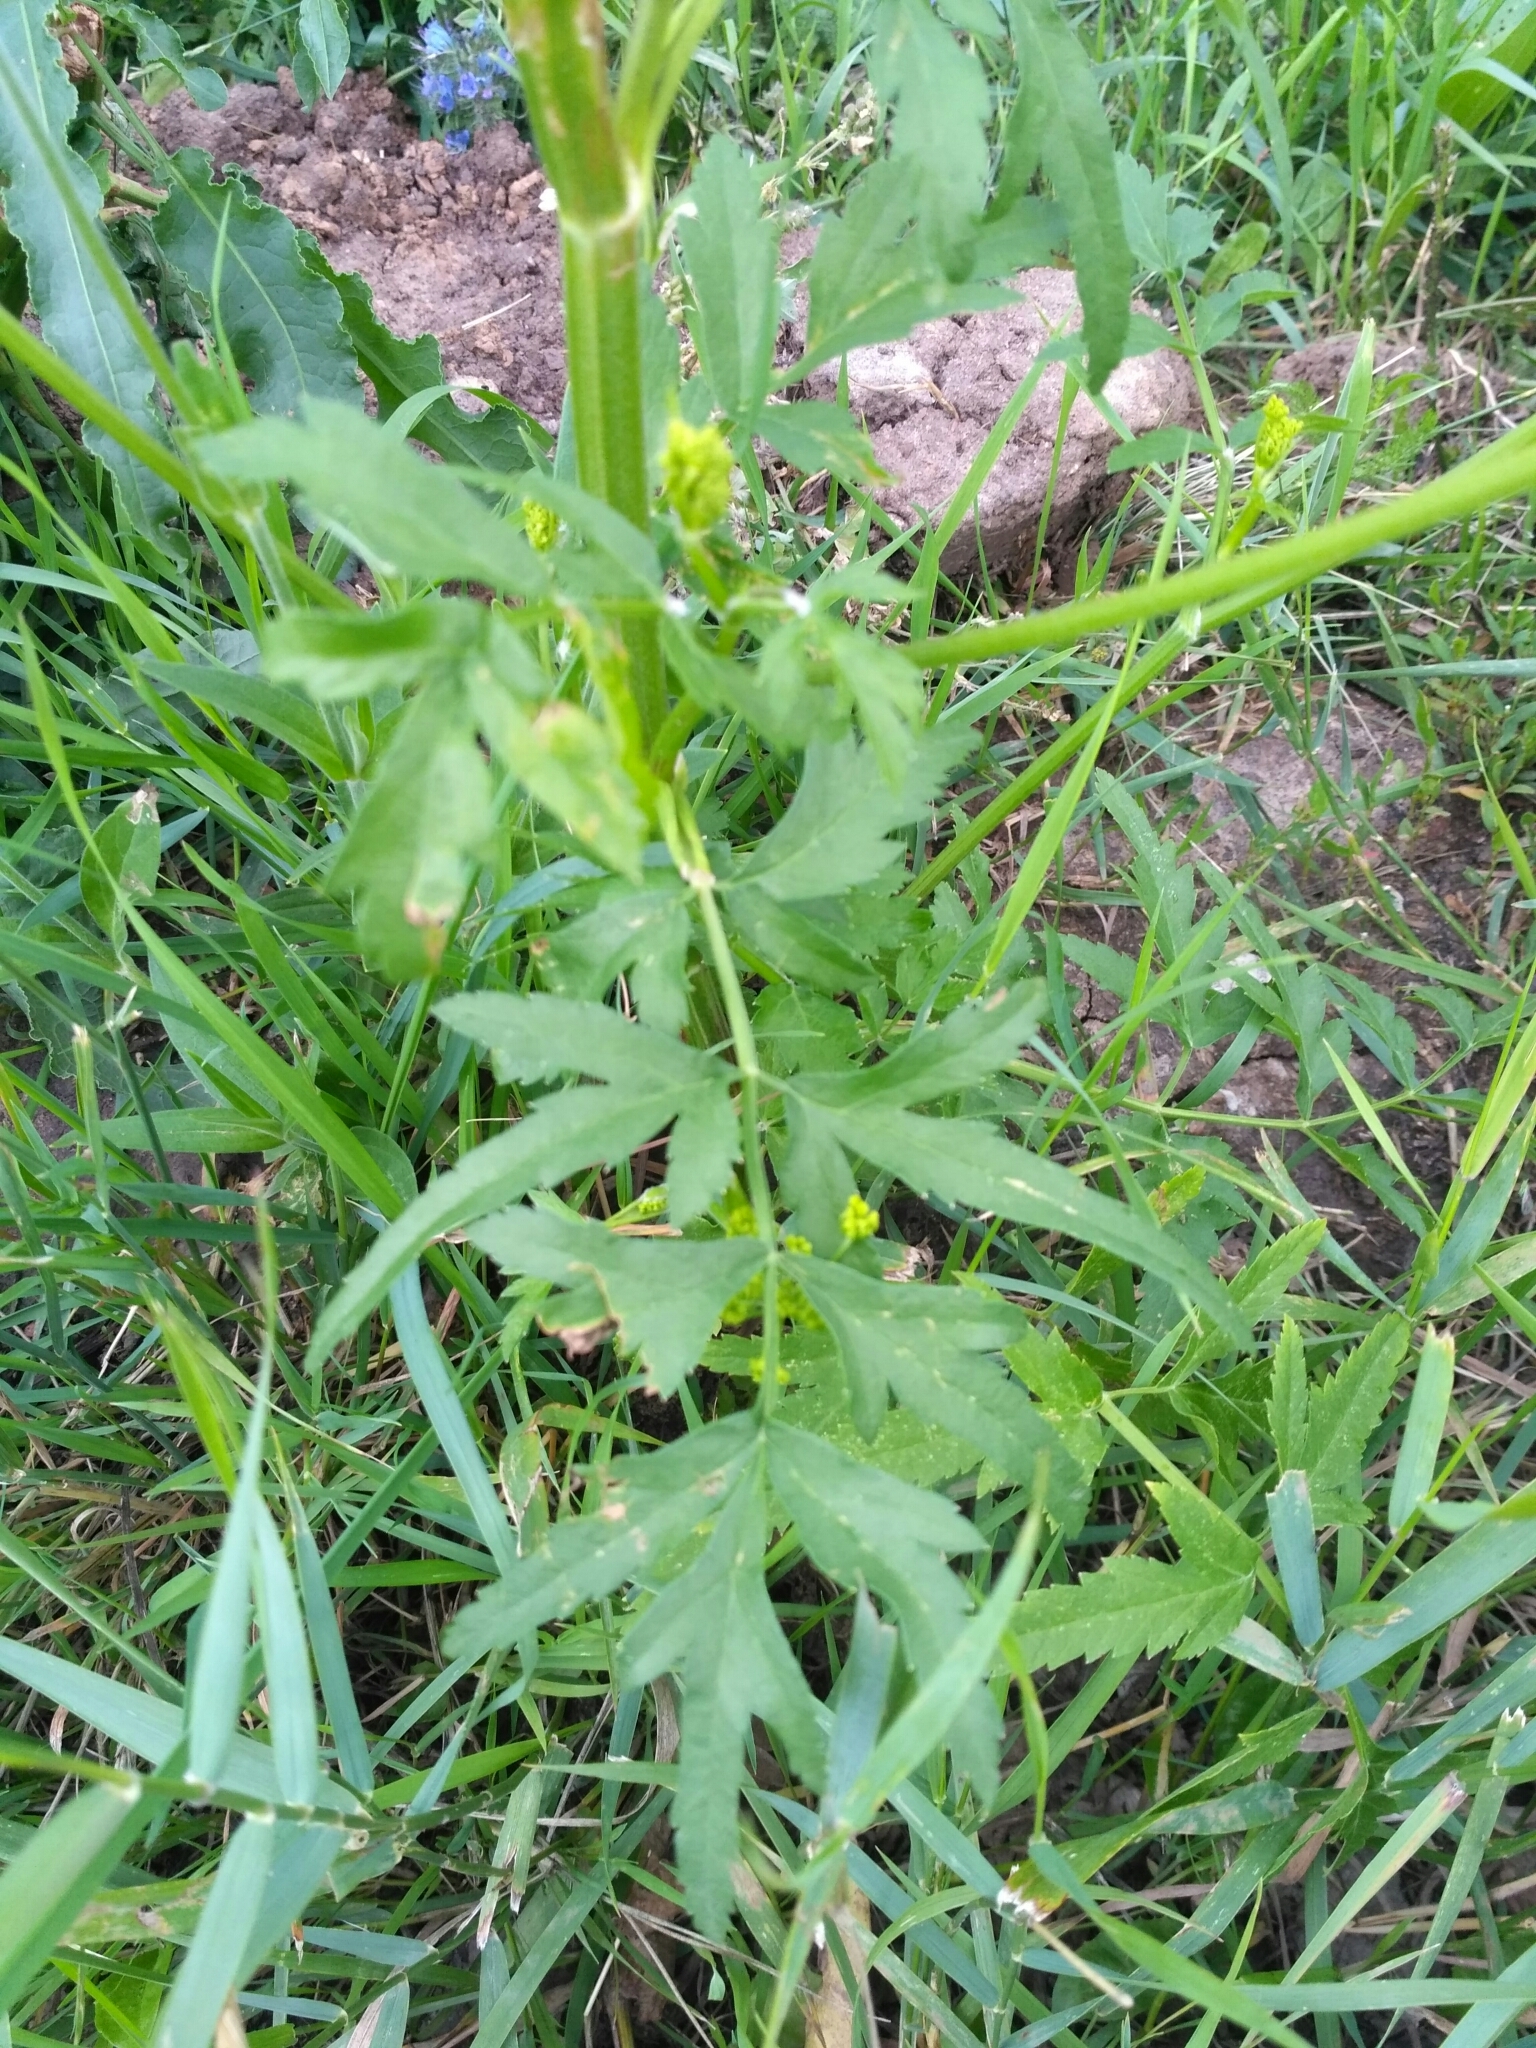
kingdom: Plantae
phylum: Tracheophyta
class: Magnoliopsida
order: Apiales
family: Apiaceae
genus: Pastinaca
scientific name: Pastinaca sativa
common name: Wild parsnip
